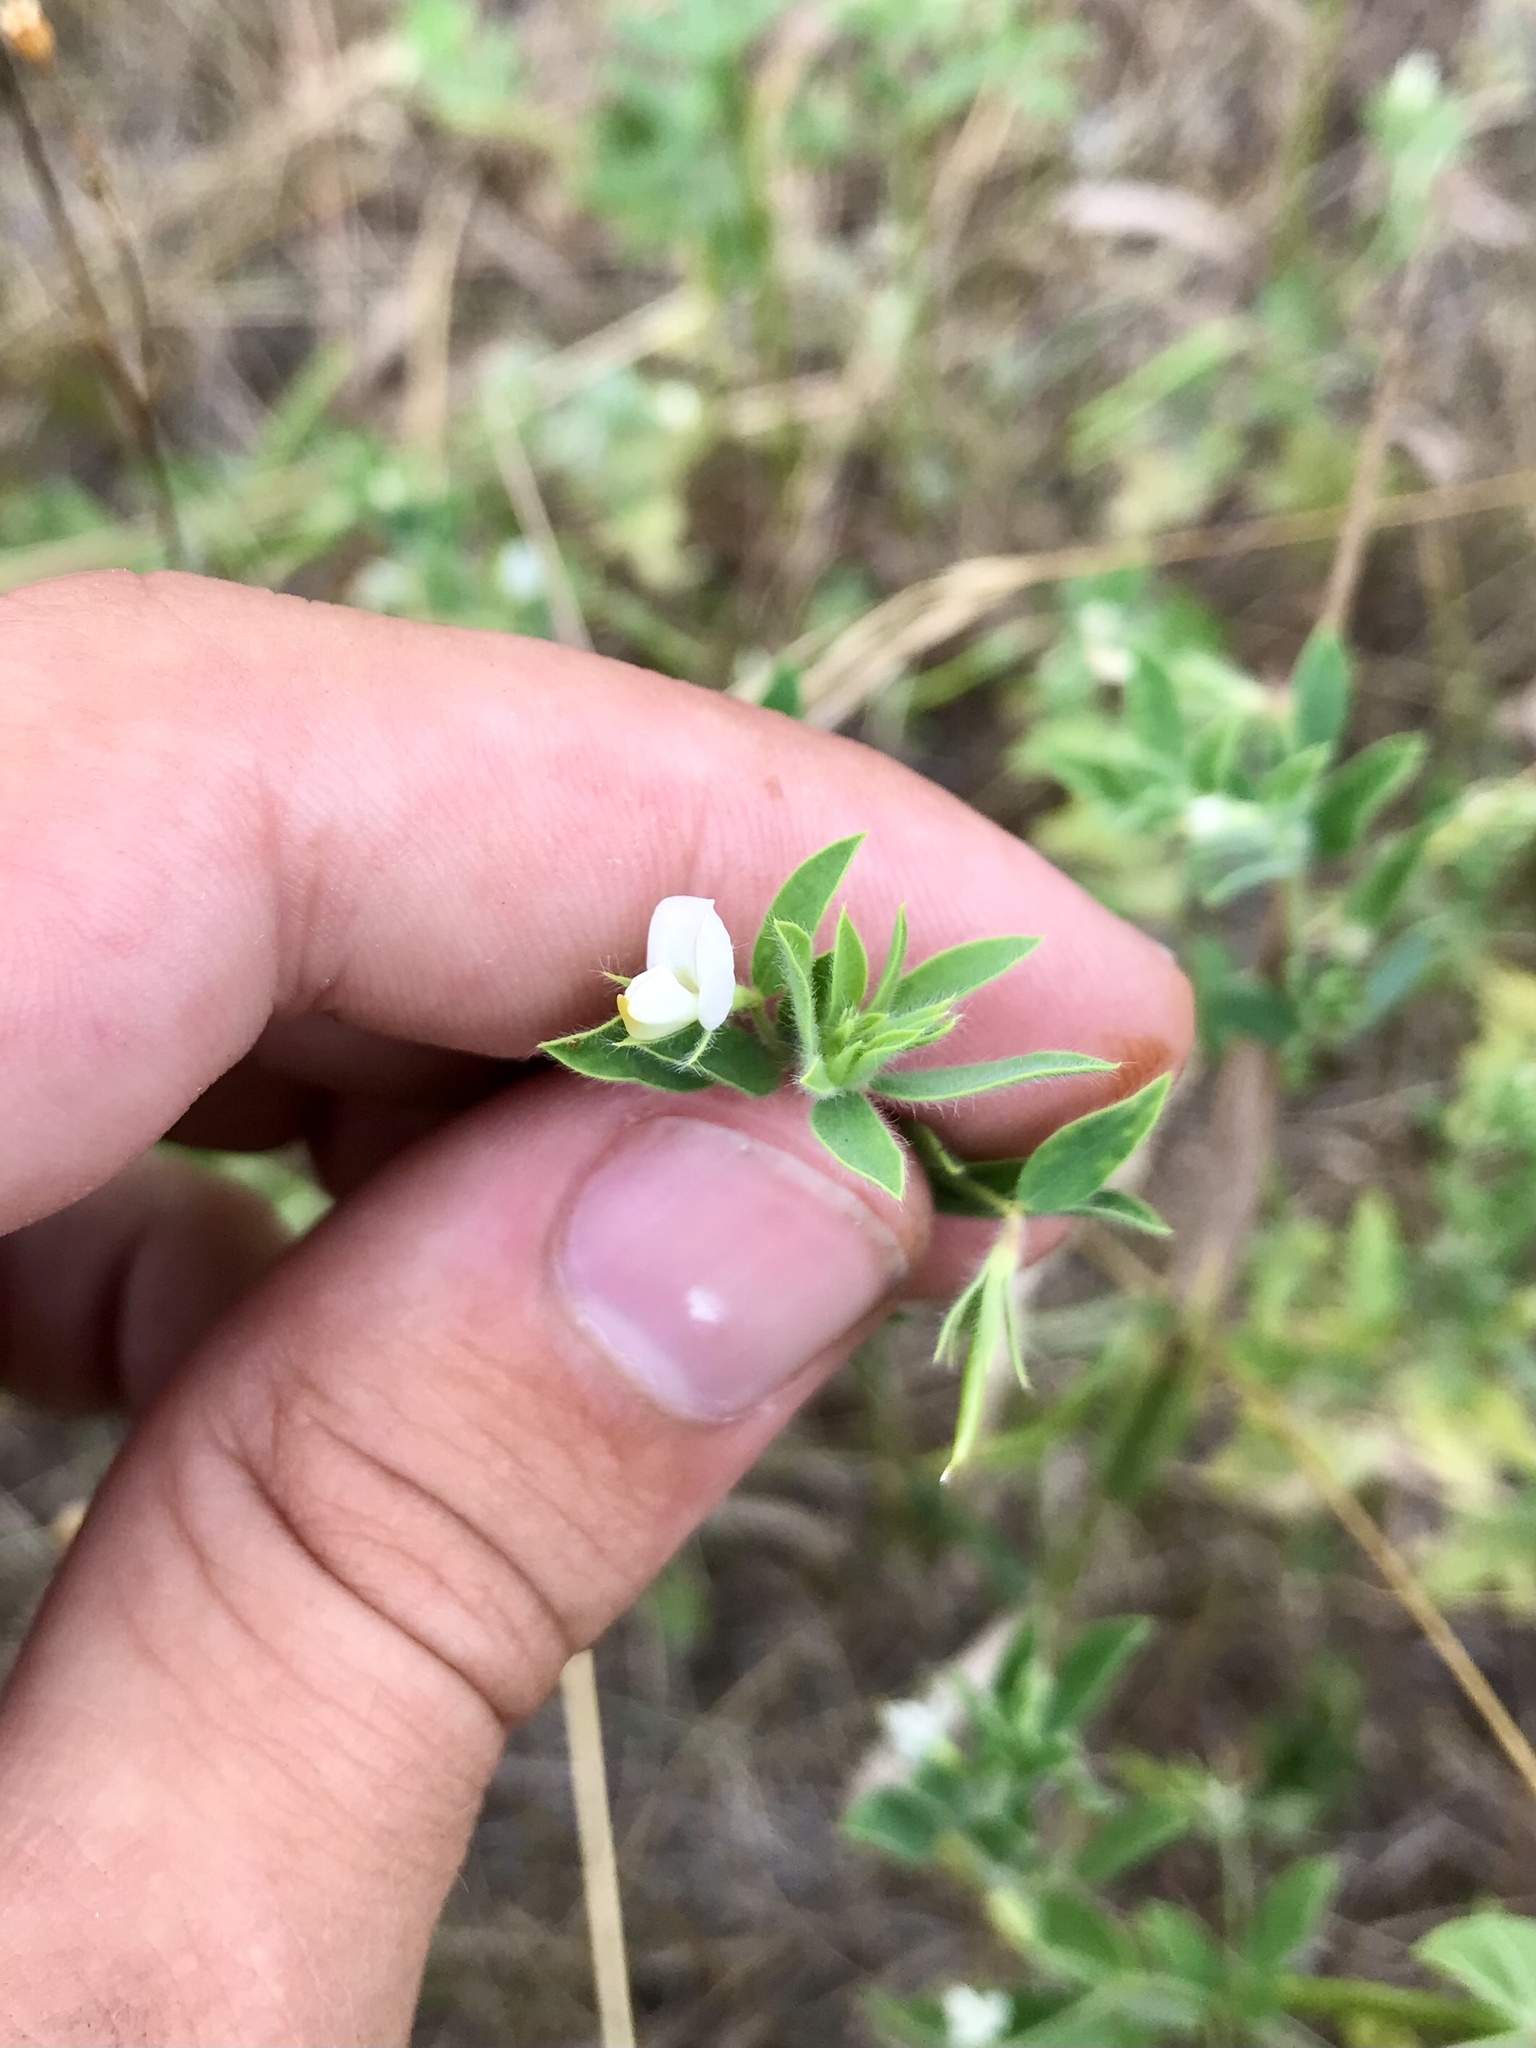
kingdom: Plantae
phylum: Tracheophyta
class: Magnoliopsida
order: Fabales
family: Fabaceae
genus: Acmispon
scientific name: Acmispon americanus
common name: American bird's-foot trefoil
